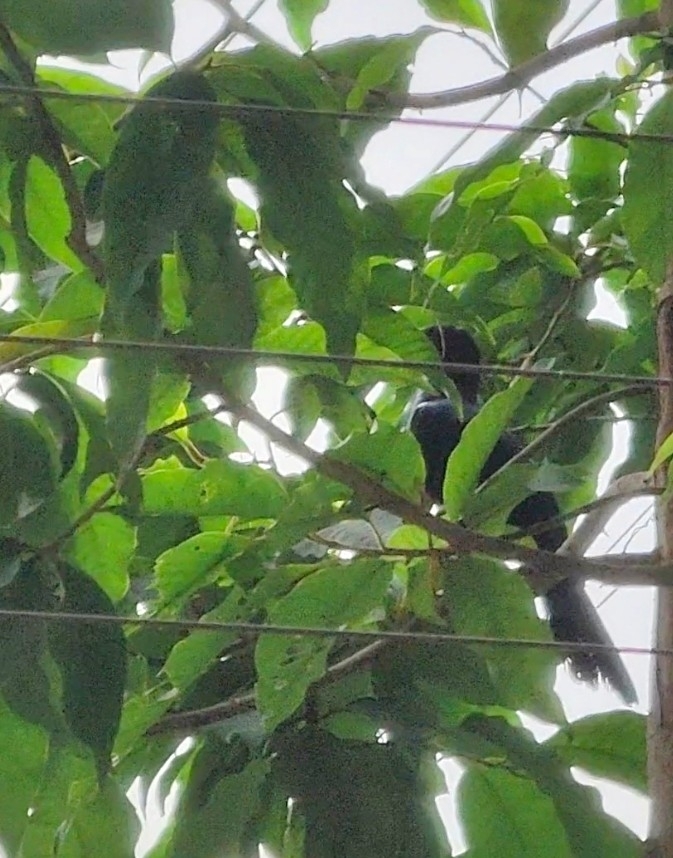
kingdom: Animalia
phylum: Chordata
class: Aves
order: Cuculiformes
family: Cuculidae
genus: Eudynamys
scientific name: Eudynamys scolopaceus
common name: Asian koel
